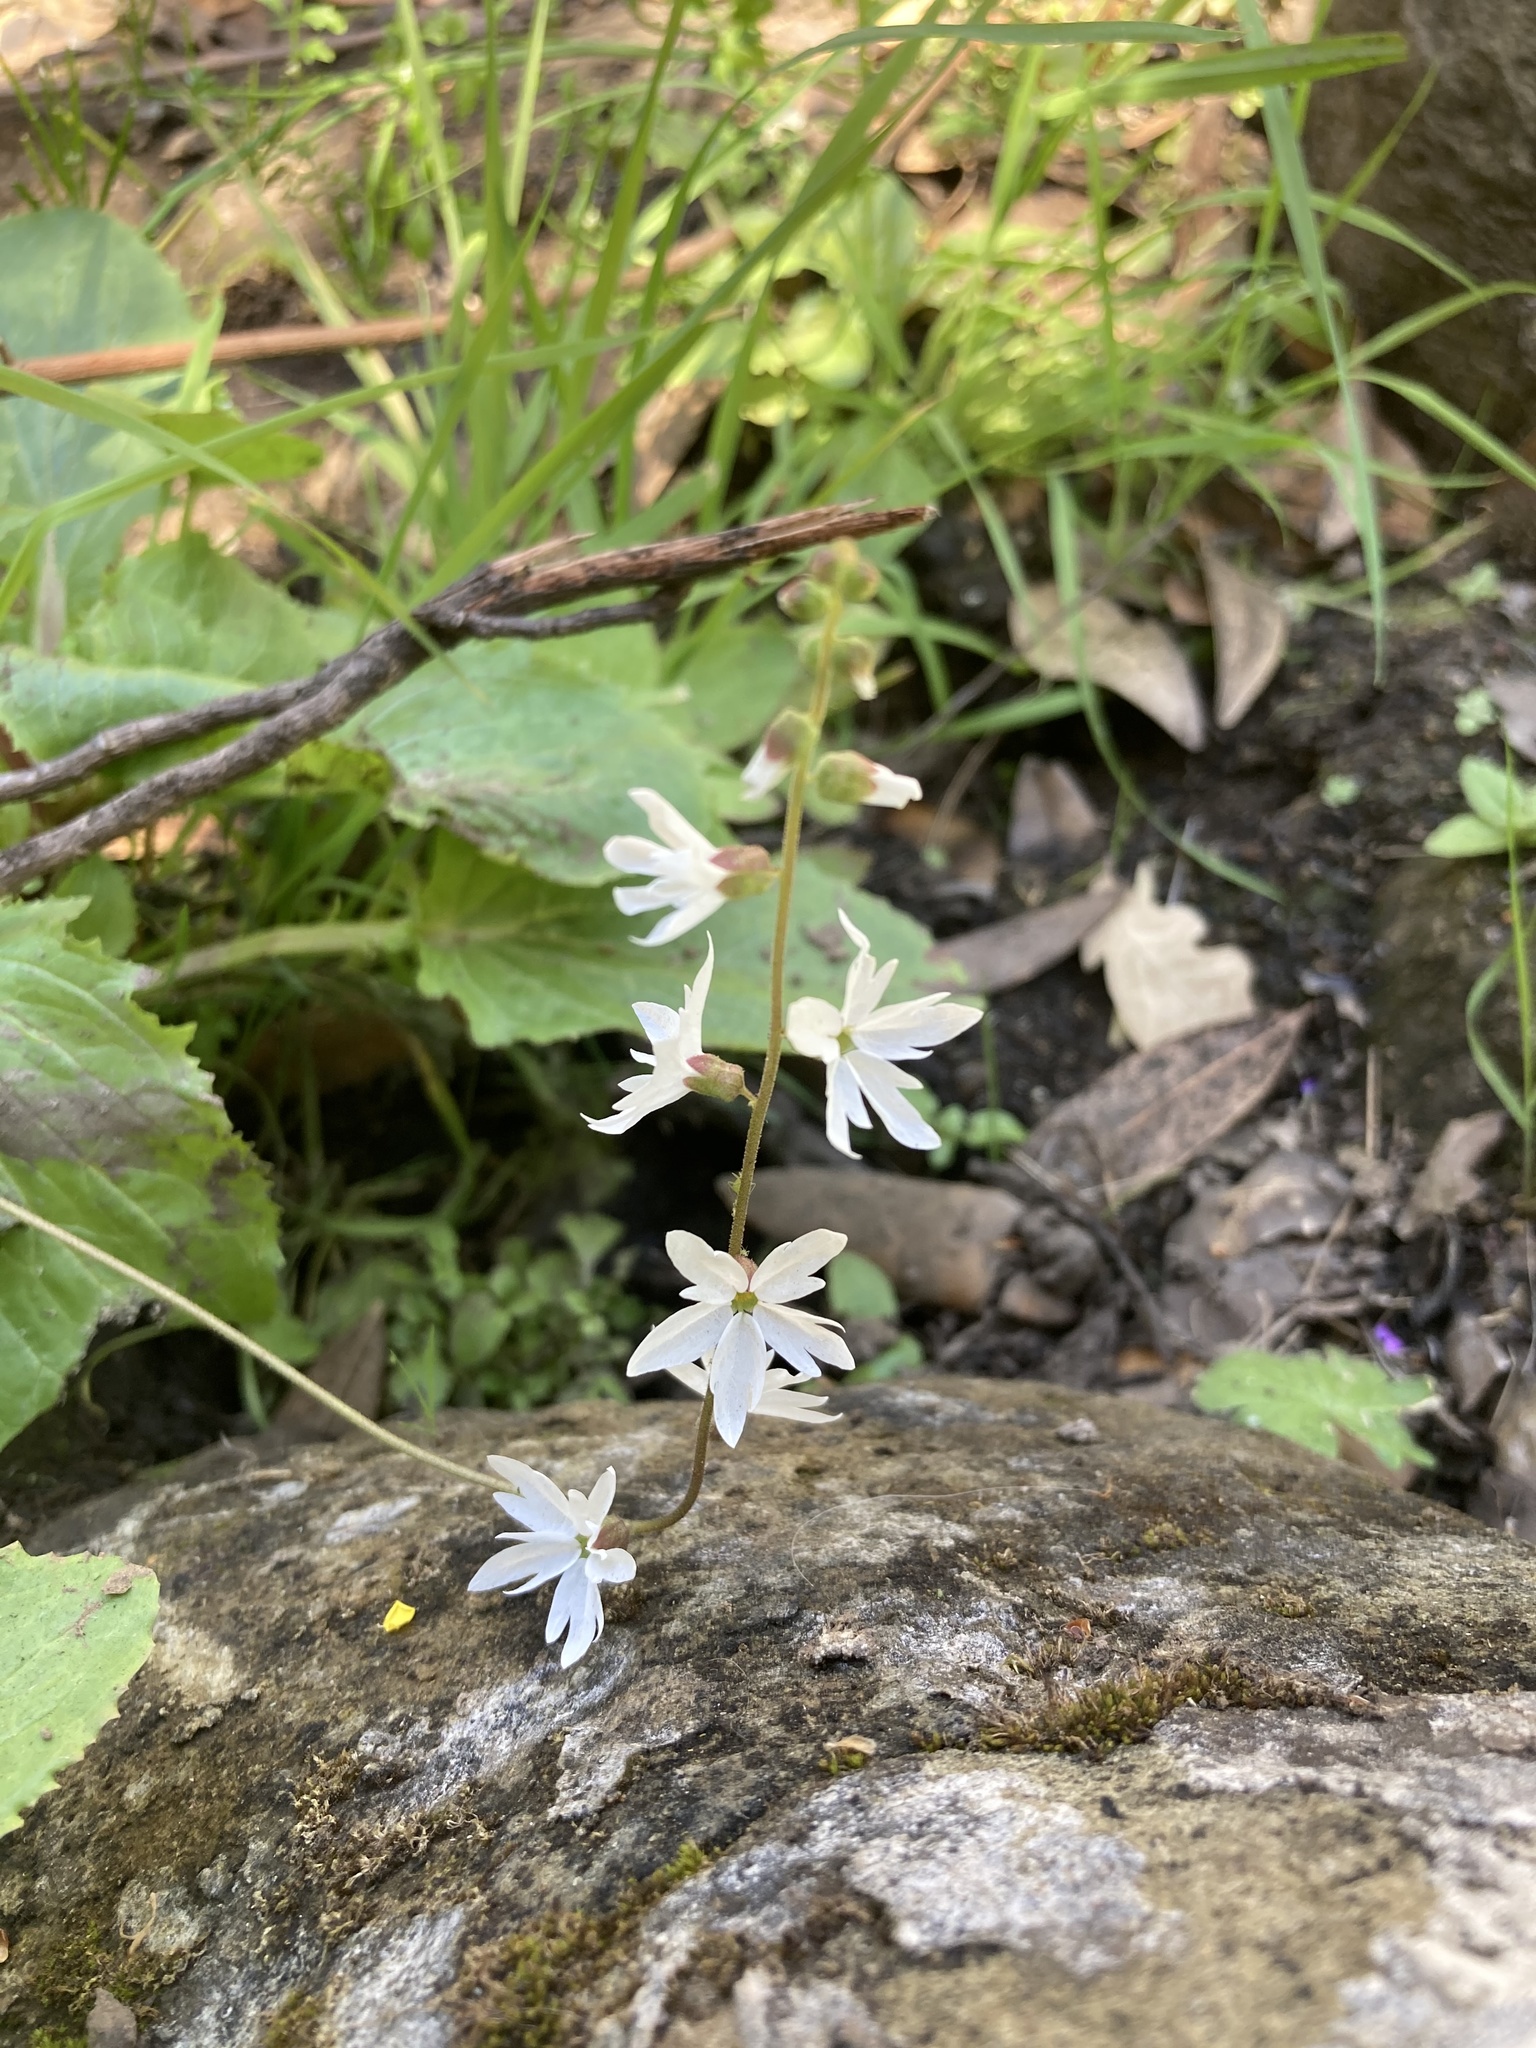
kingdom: Plantae
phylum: Tracheophyta
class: Magnoliopsida
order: Saxifragales
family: Saxifragaceae
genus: Lithophragma
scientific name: Lithophragma heterophyllum
